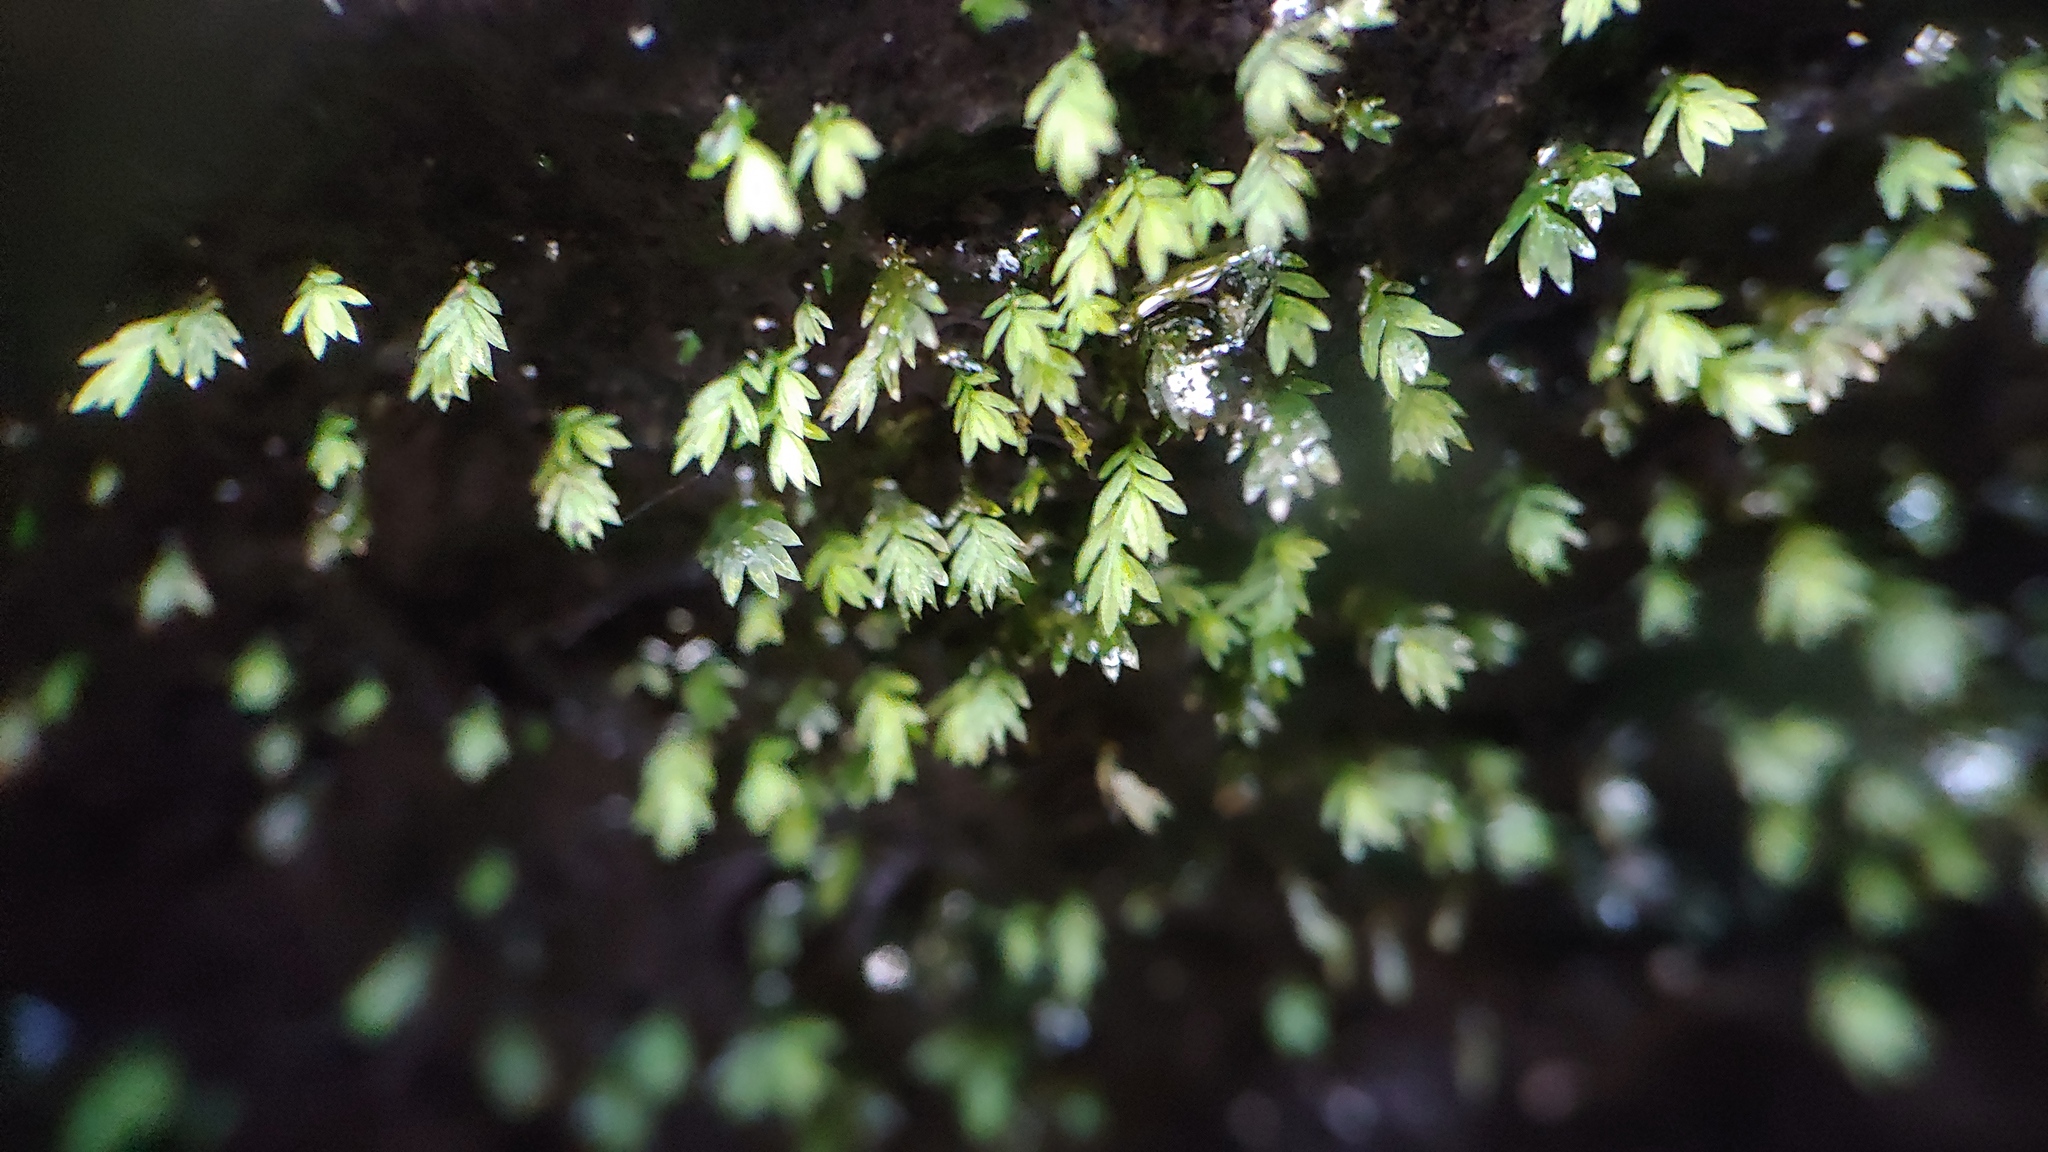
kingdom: Plantae
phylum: Bryophyta
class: Bryopsida
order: Dicranales
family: Fissidentaceae
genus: Fissidens
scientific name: Fissidens bryoides
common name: Lesser pocket moss
